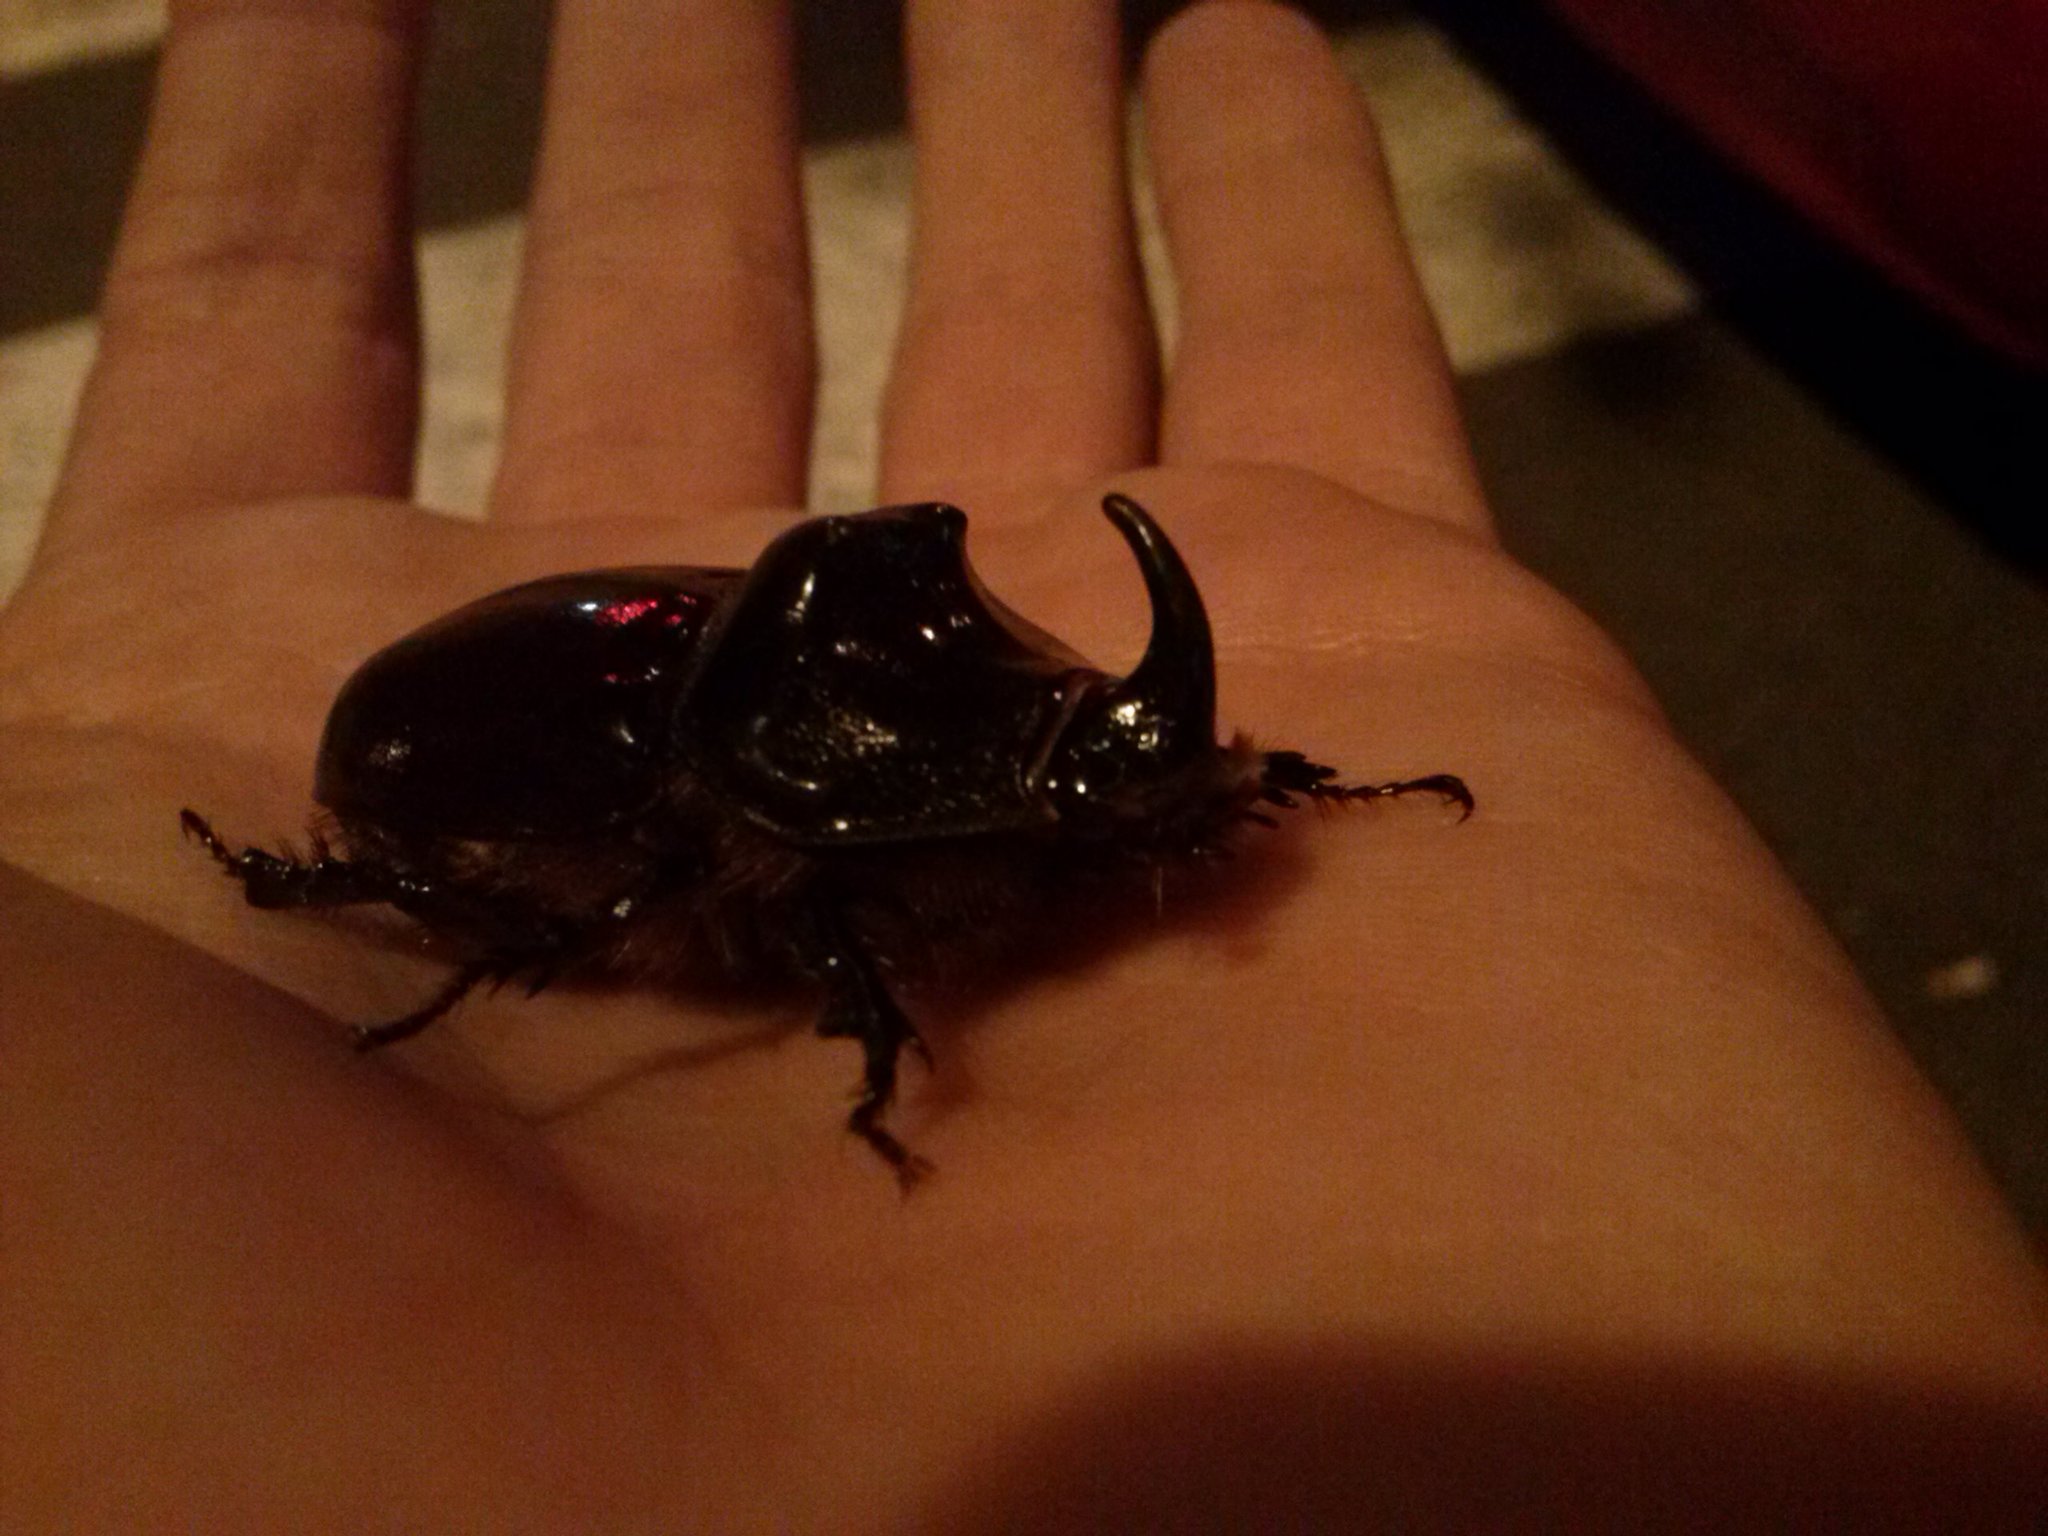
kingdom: Animalia
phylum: Arthropoda
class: Insecta
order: Coleoptera
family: Scarabaeidae
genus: Oryctes
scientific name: Oryctes nasicornis
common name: European rhinoceros beetle
